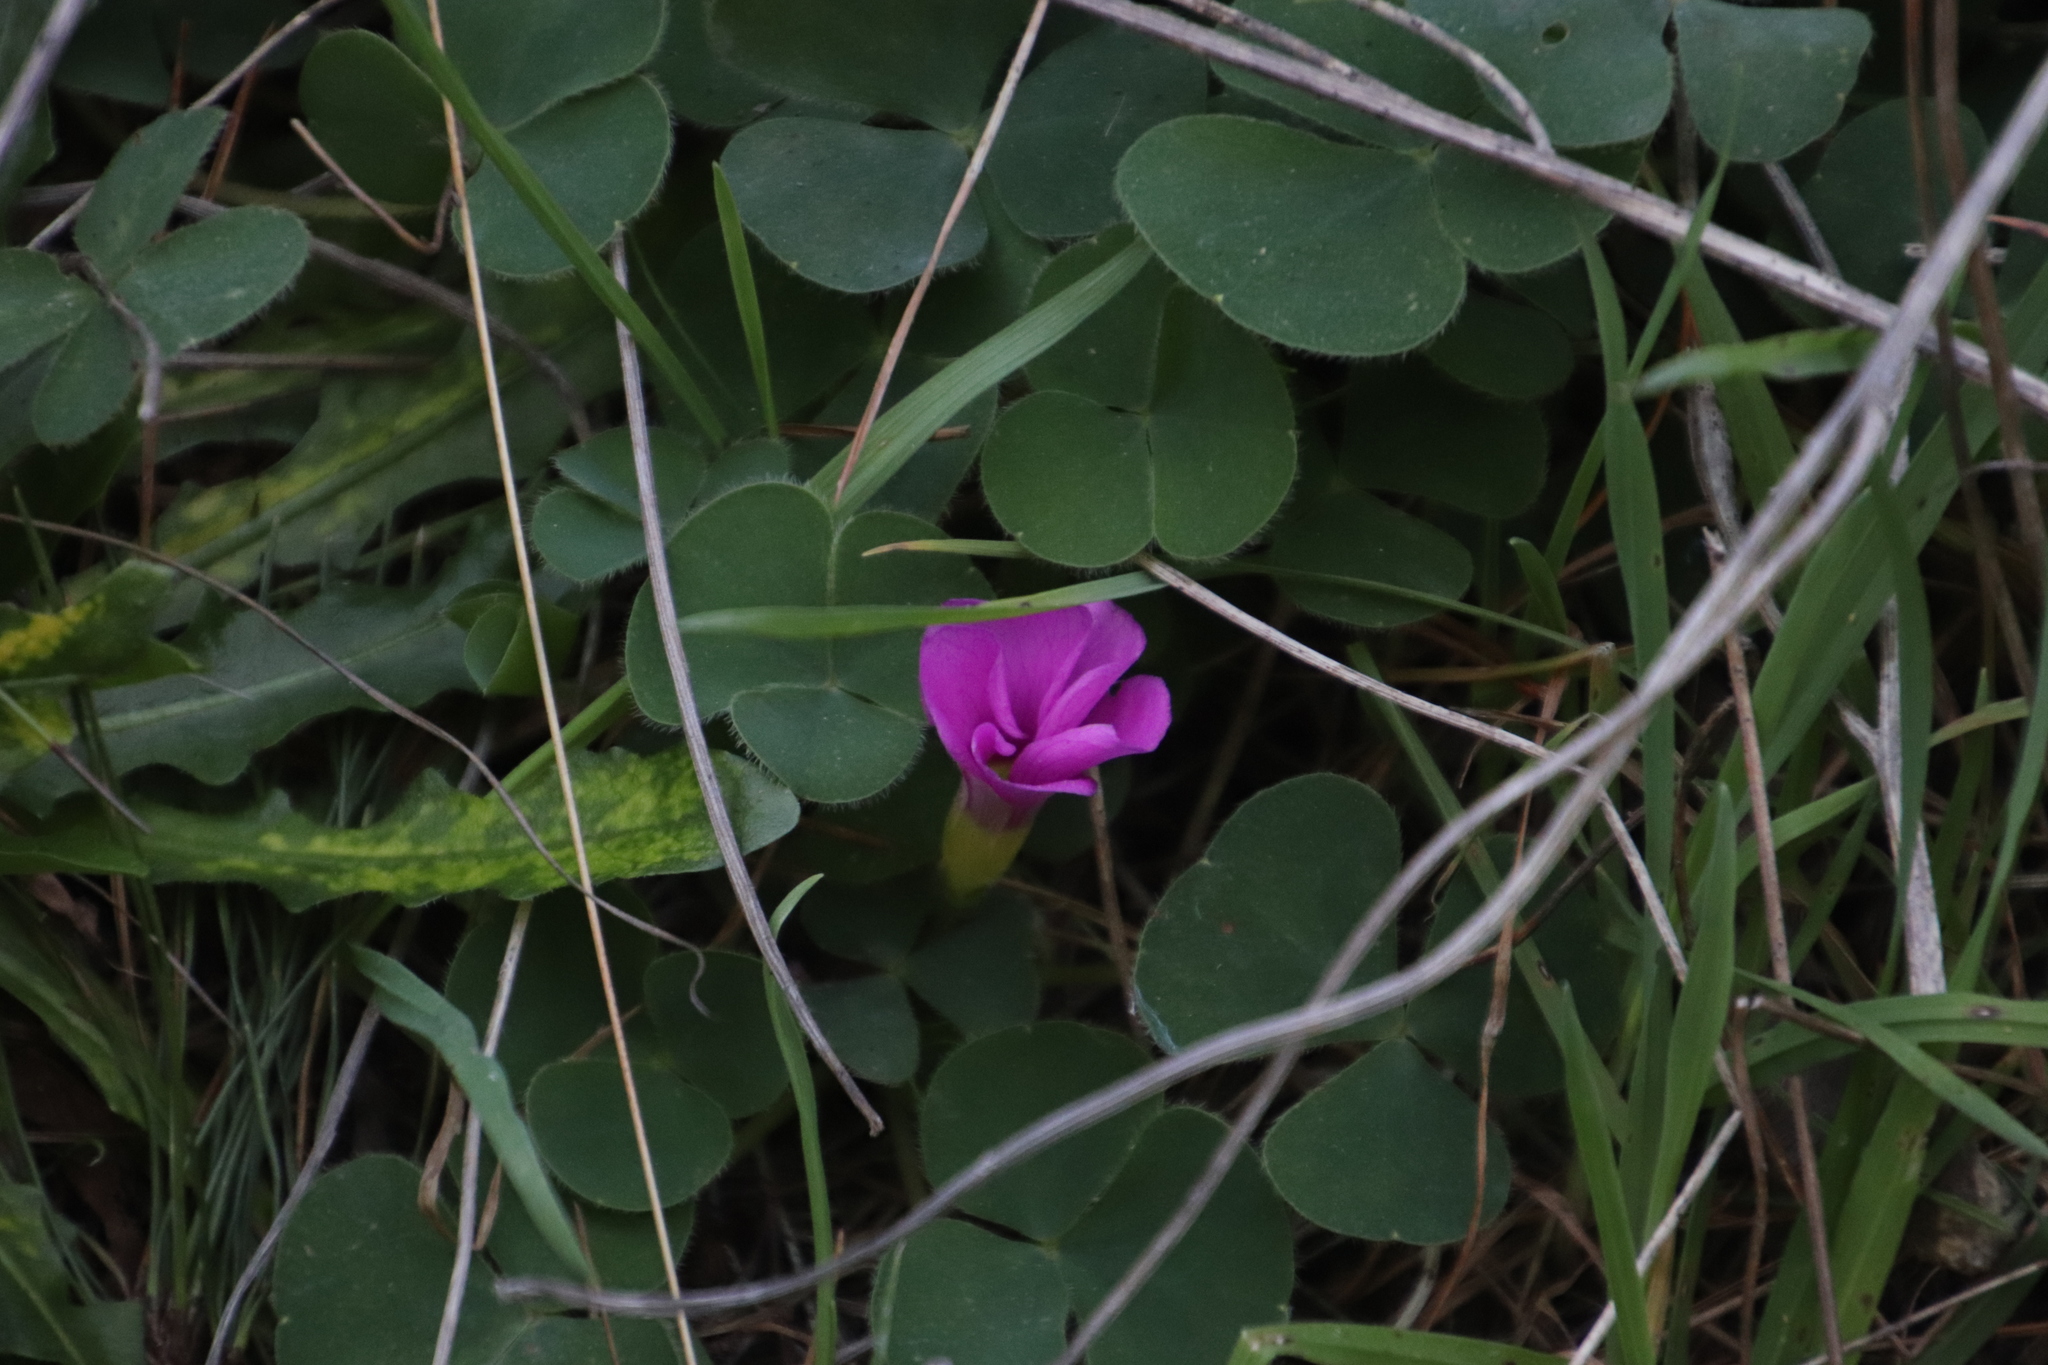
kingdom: Plantae
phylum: Tracheophyta
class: Magnoliopsida
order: Oxalidales
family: Oxalidaceae
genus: Oxalis
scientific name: Oxalis purpurea
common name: Purple woodsorrel
